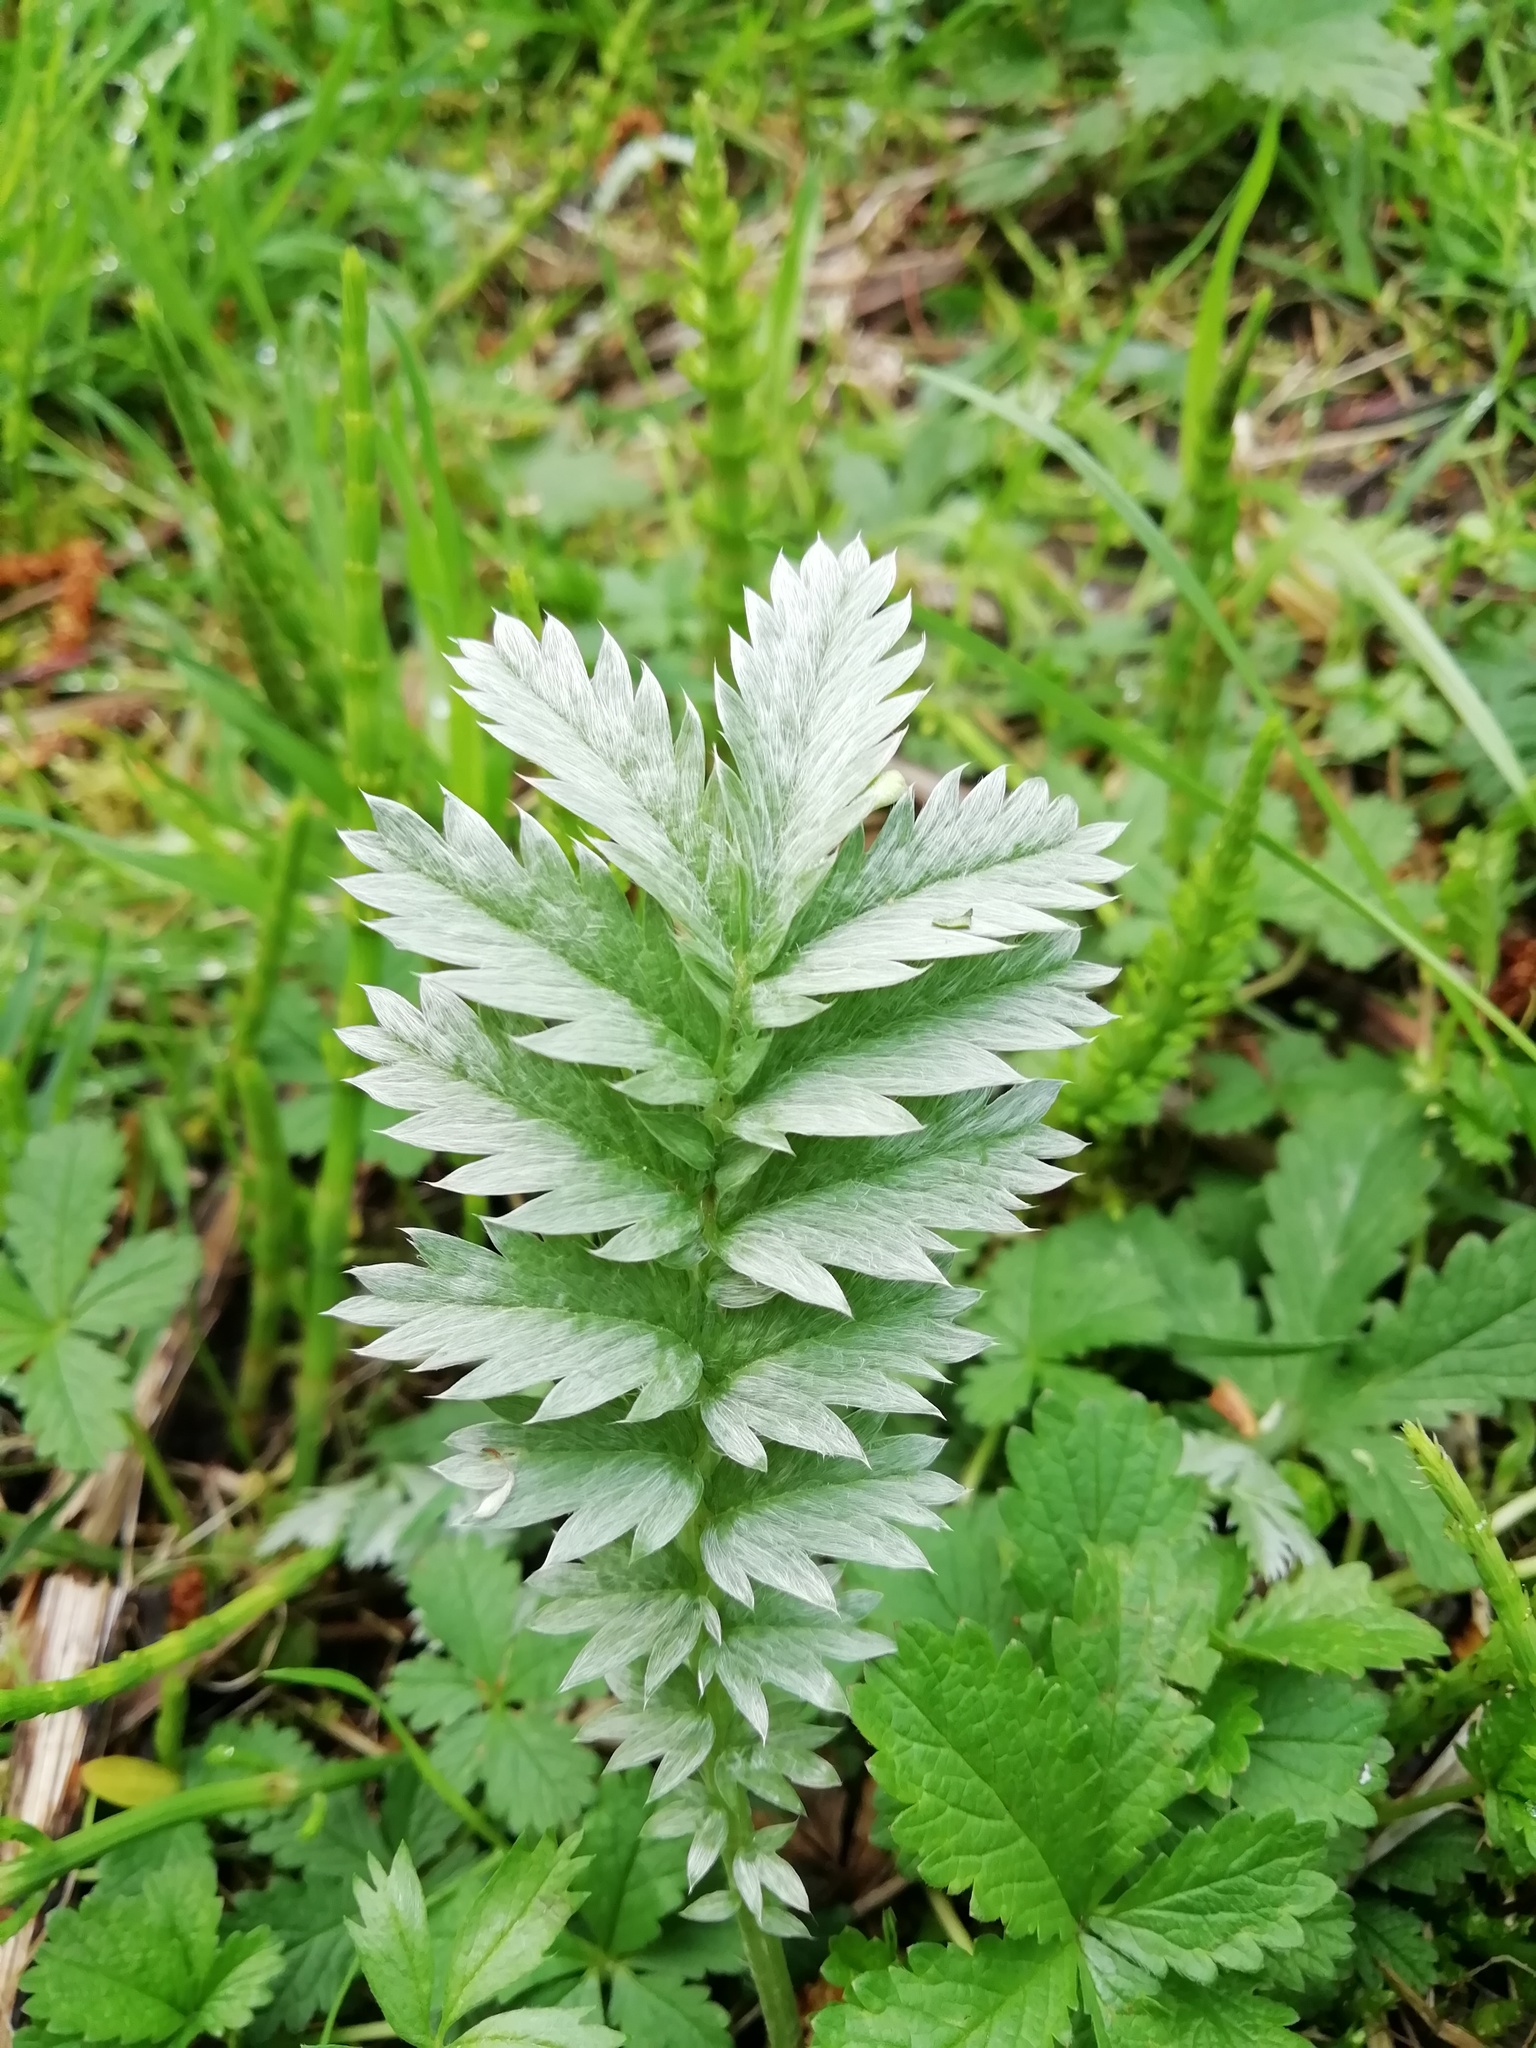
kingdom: Plantae
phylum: Tracheophyta
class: Magnoliopsida
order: Rosales
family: Rosaceae
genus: Argentina
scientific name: Argentina anserina
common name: Common silverweed
